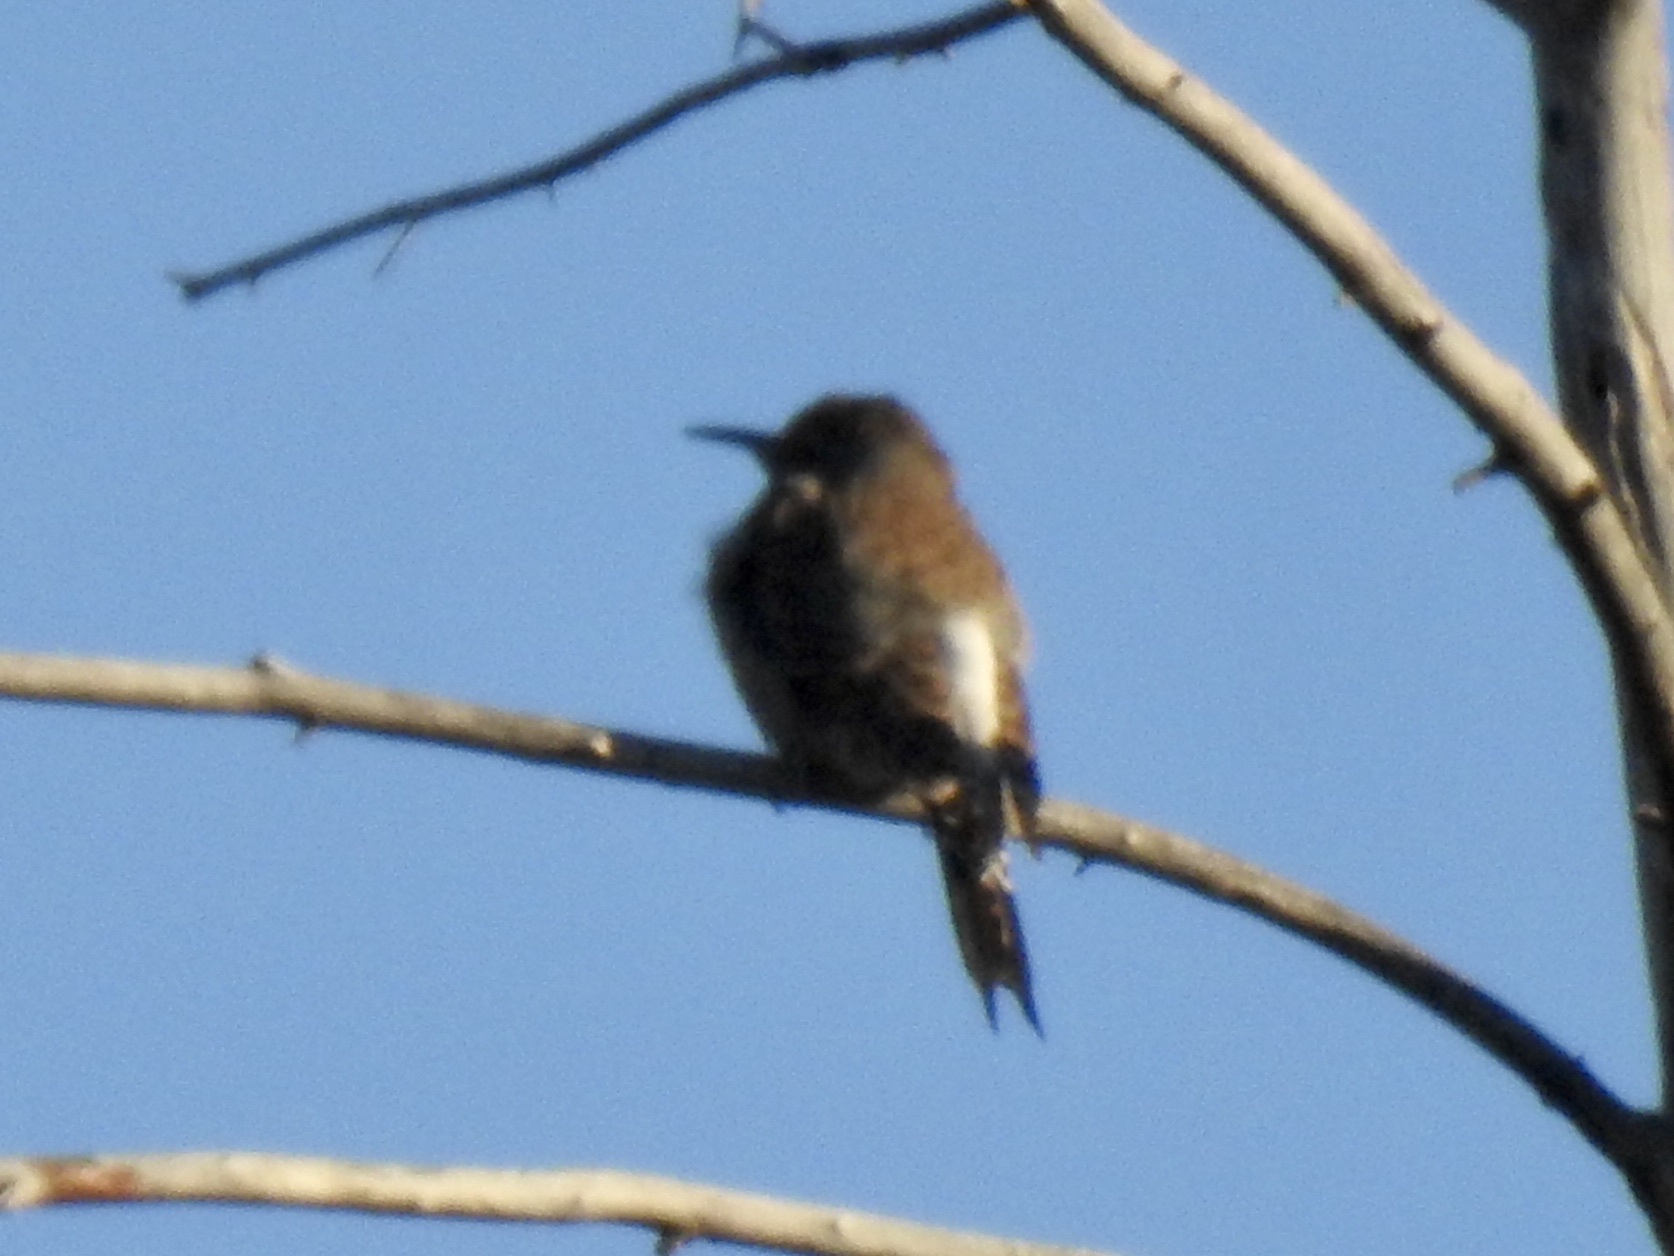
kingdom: Animalia
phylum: Chordata
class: Aves
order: Piciformes
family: Picidae
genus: Colaptes
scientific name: Colaptes auratus
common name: Northern flicker
